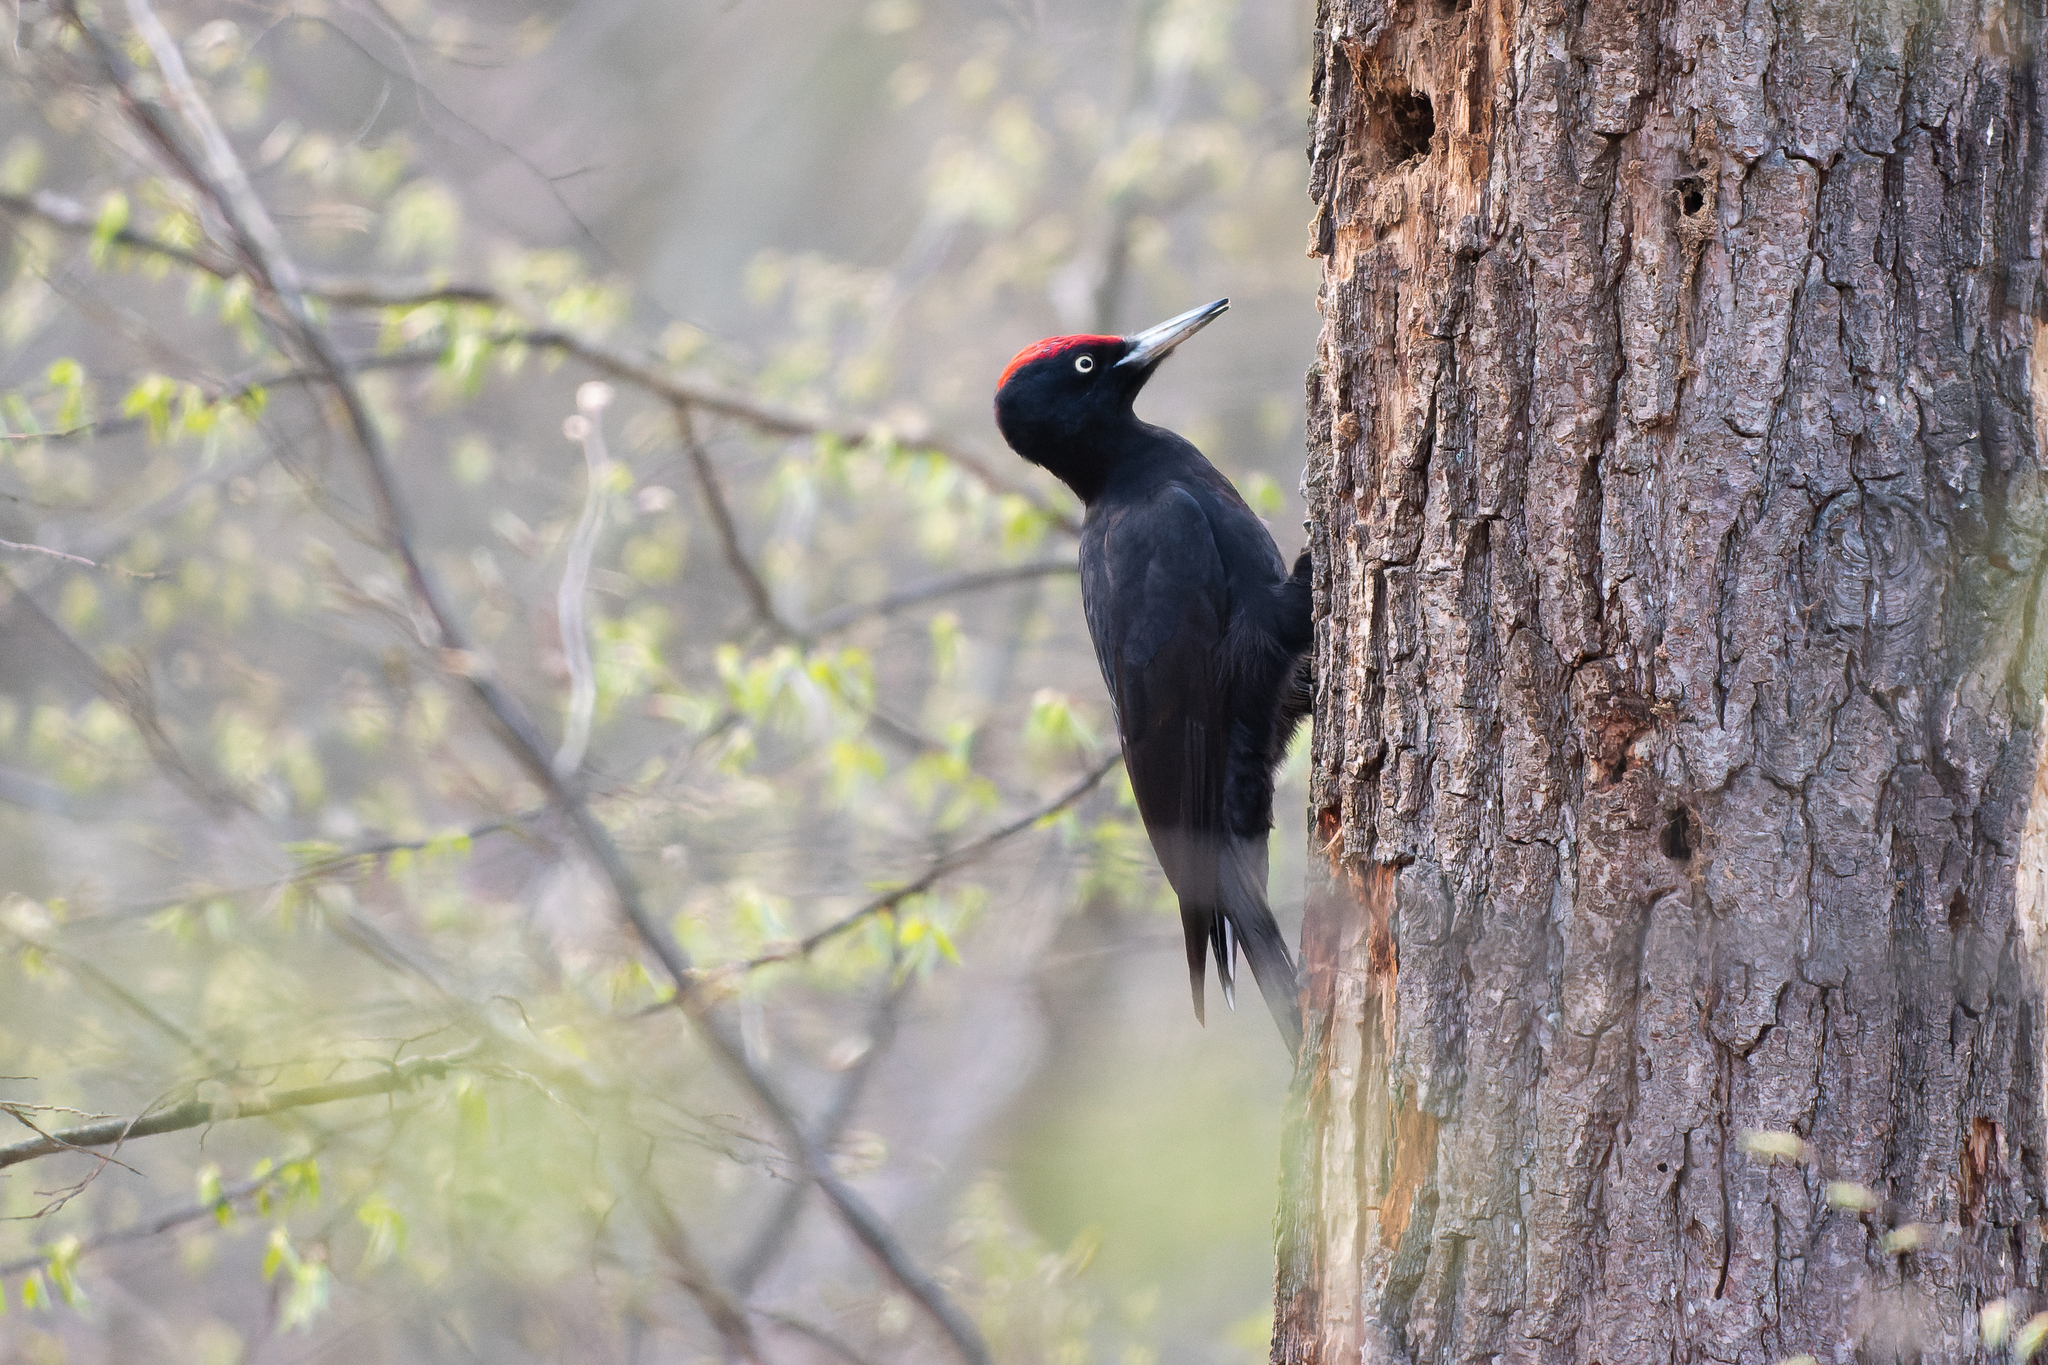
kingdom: Animalia
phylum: Chordata
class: Aves
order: Piciformes
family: Picidae
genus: Dryocopus
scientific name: Dryocopus martius
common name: Black woodpecker
